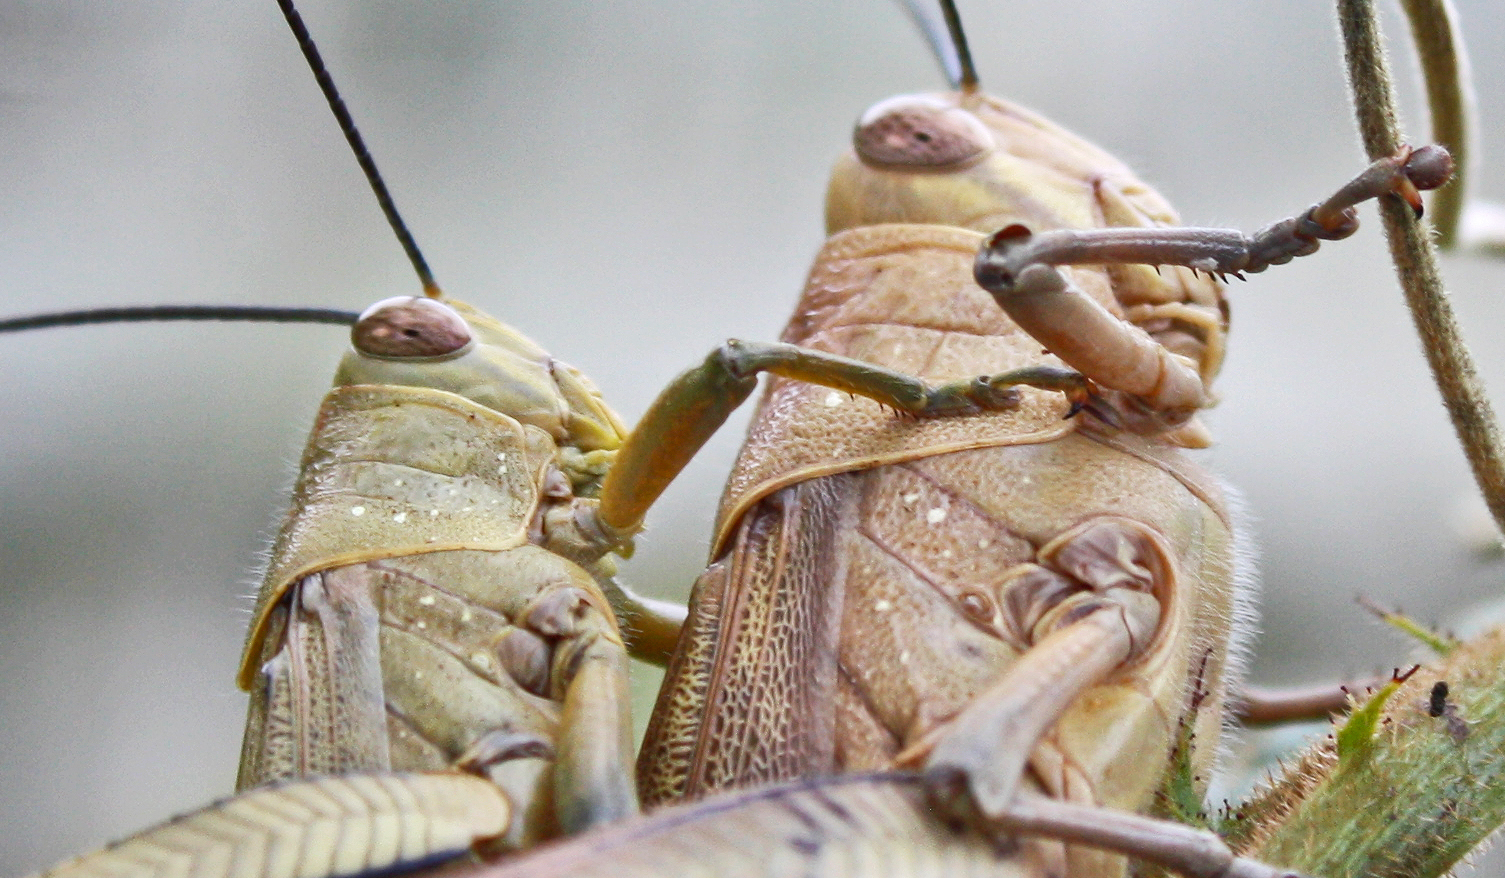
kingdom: Animalia
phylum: Arthropoda
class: Insecta
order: Orthoptera
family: Acrididae
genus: Valanga
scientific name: Valanga irregularis
